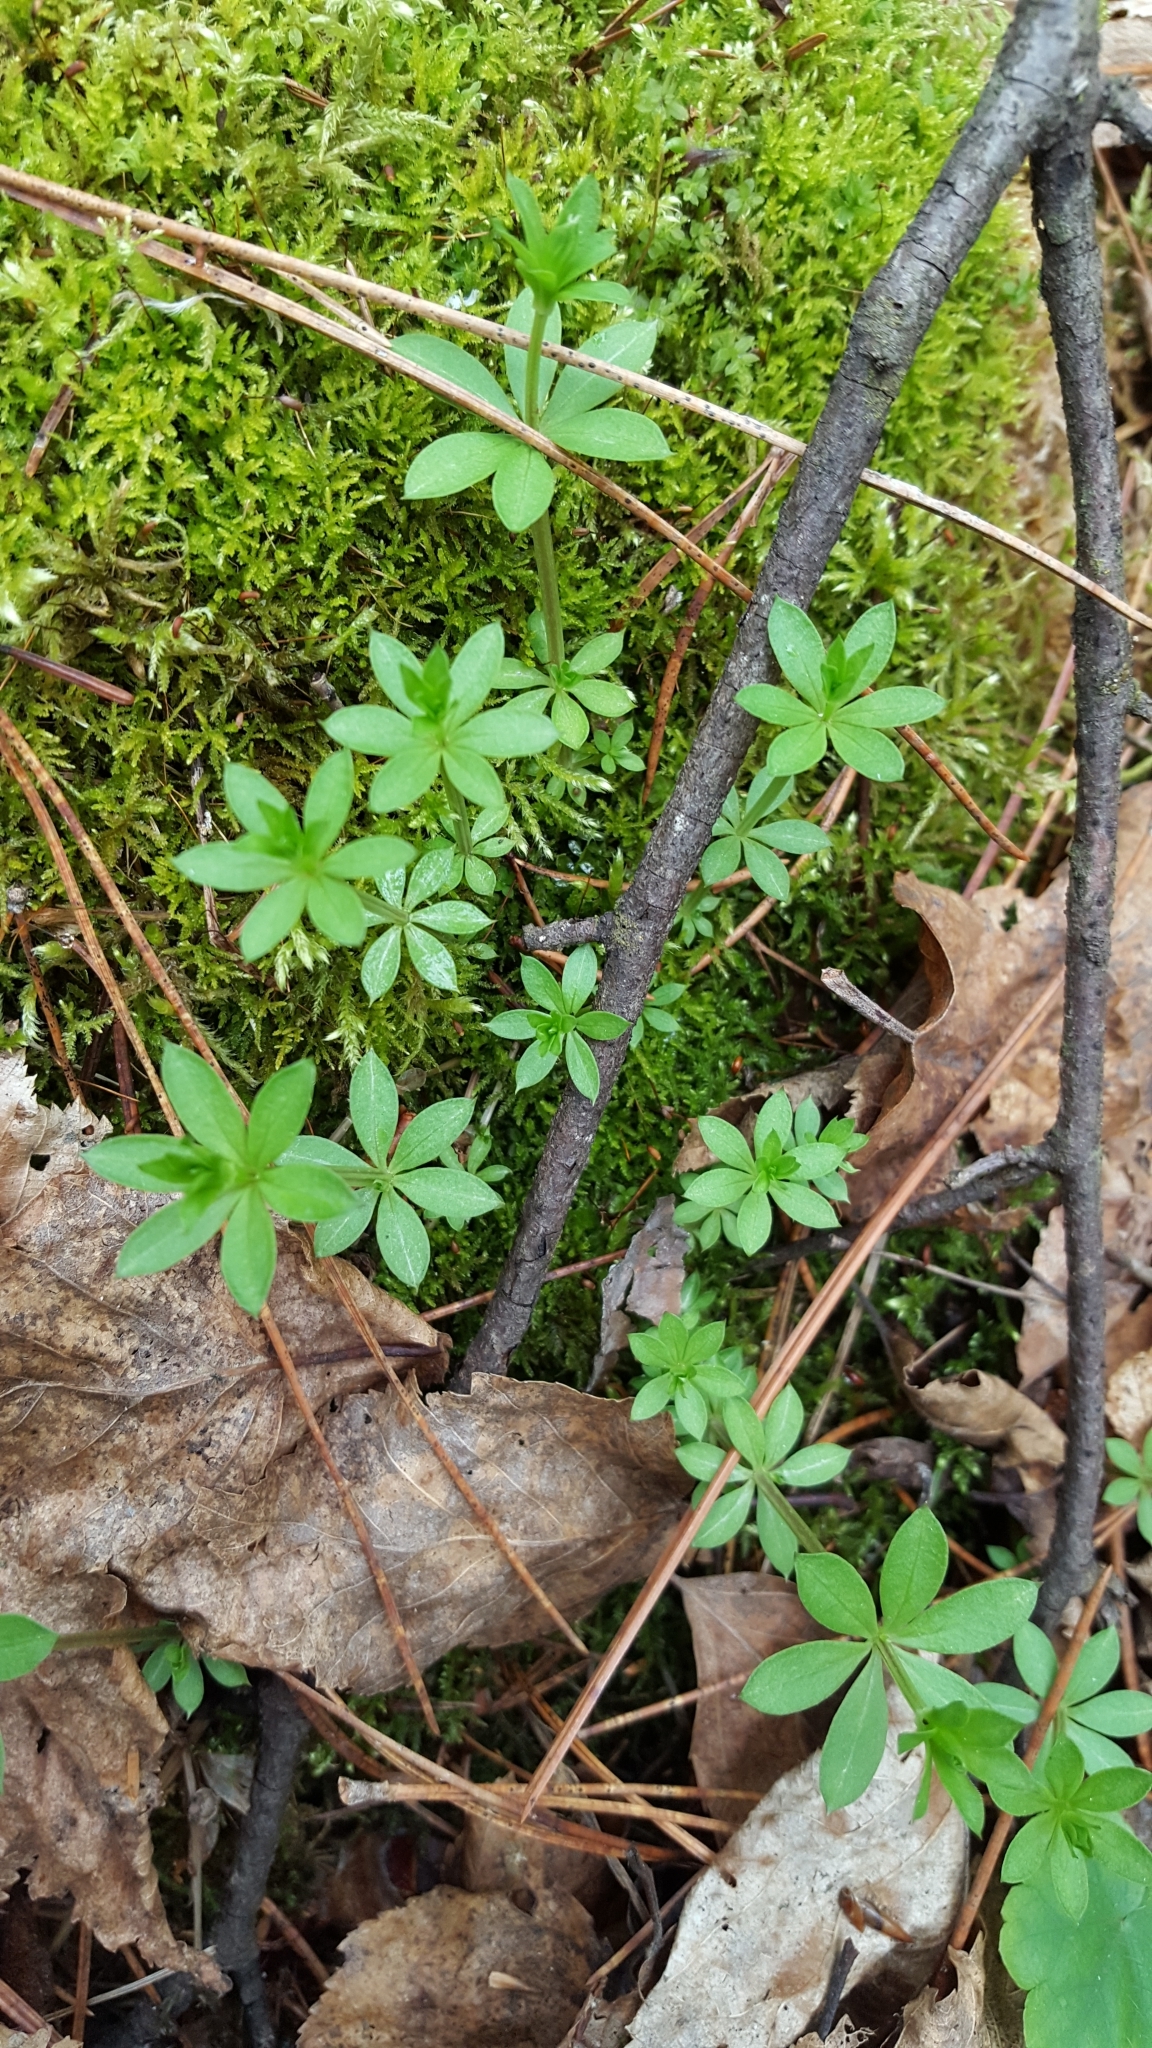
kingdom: Plantae
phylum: Tracheophyta
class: Magnoliopsida
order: Gentianales
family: Rubiaceae
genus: Galium
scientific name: Galium triflorum
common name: Fragrant bedstraw
